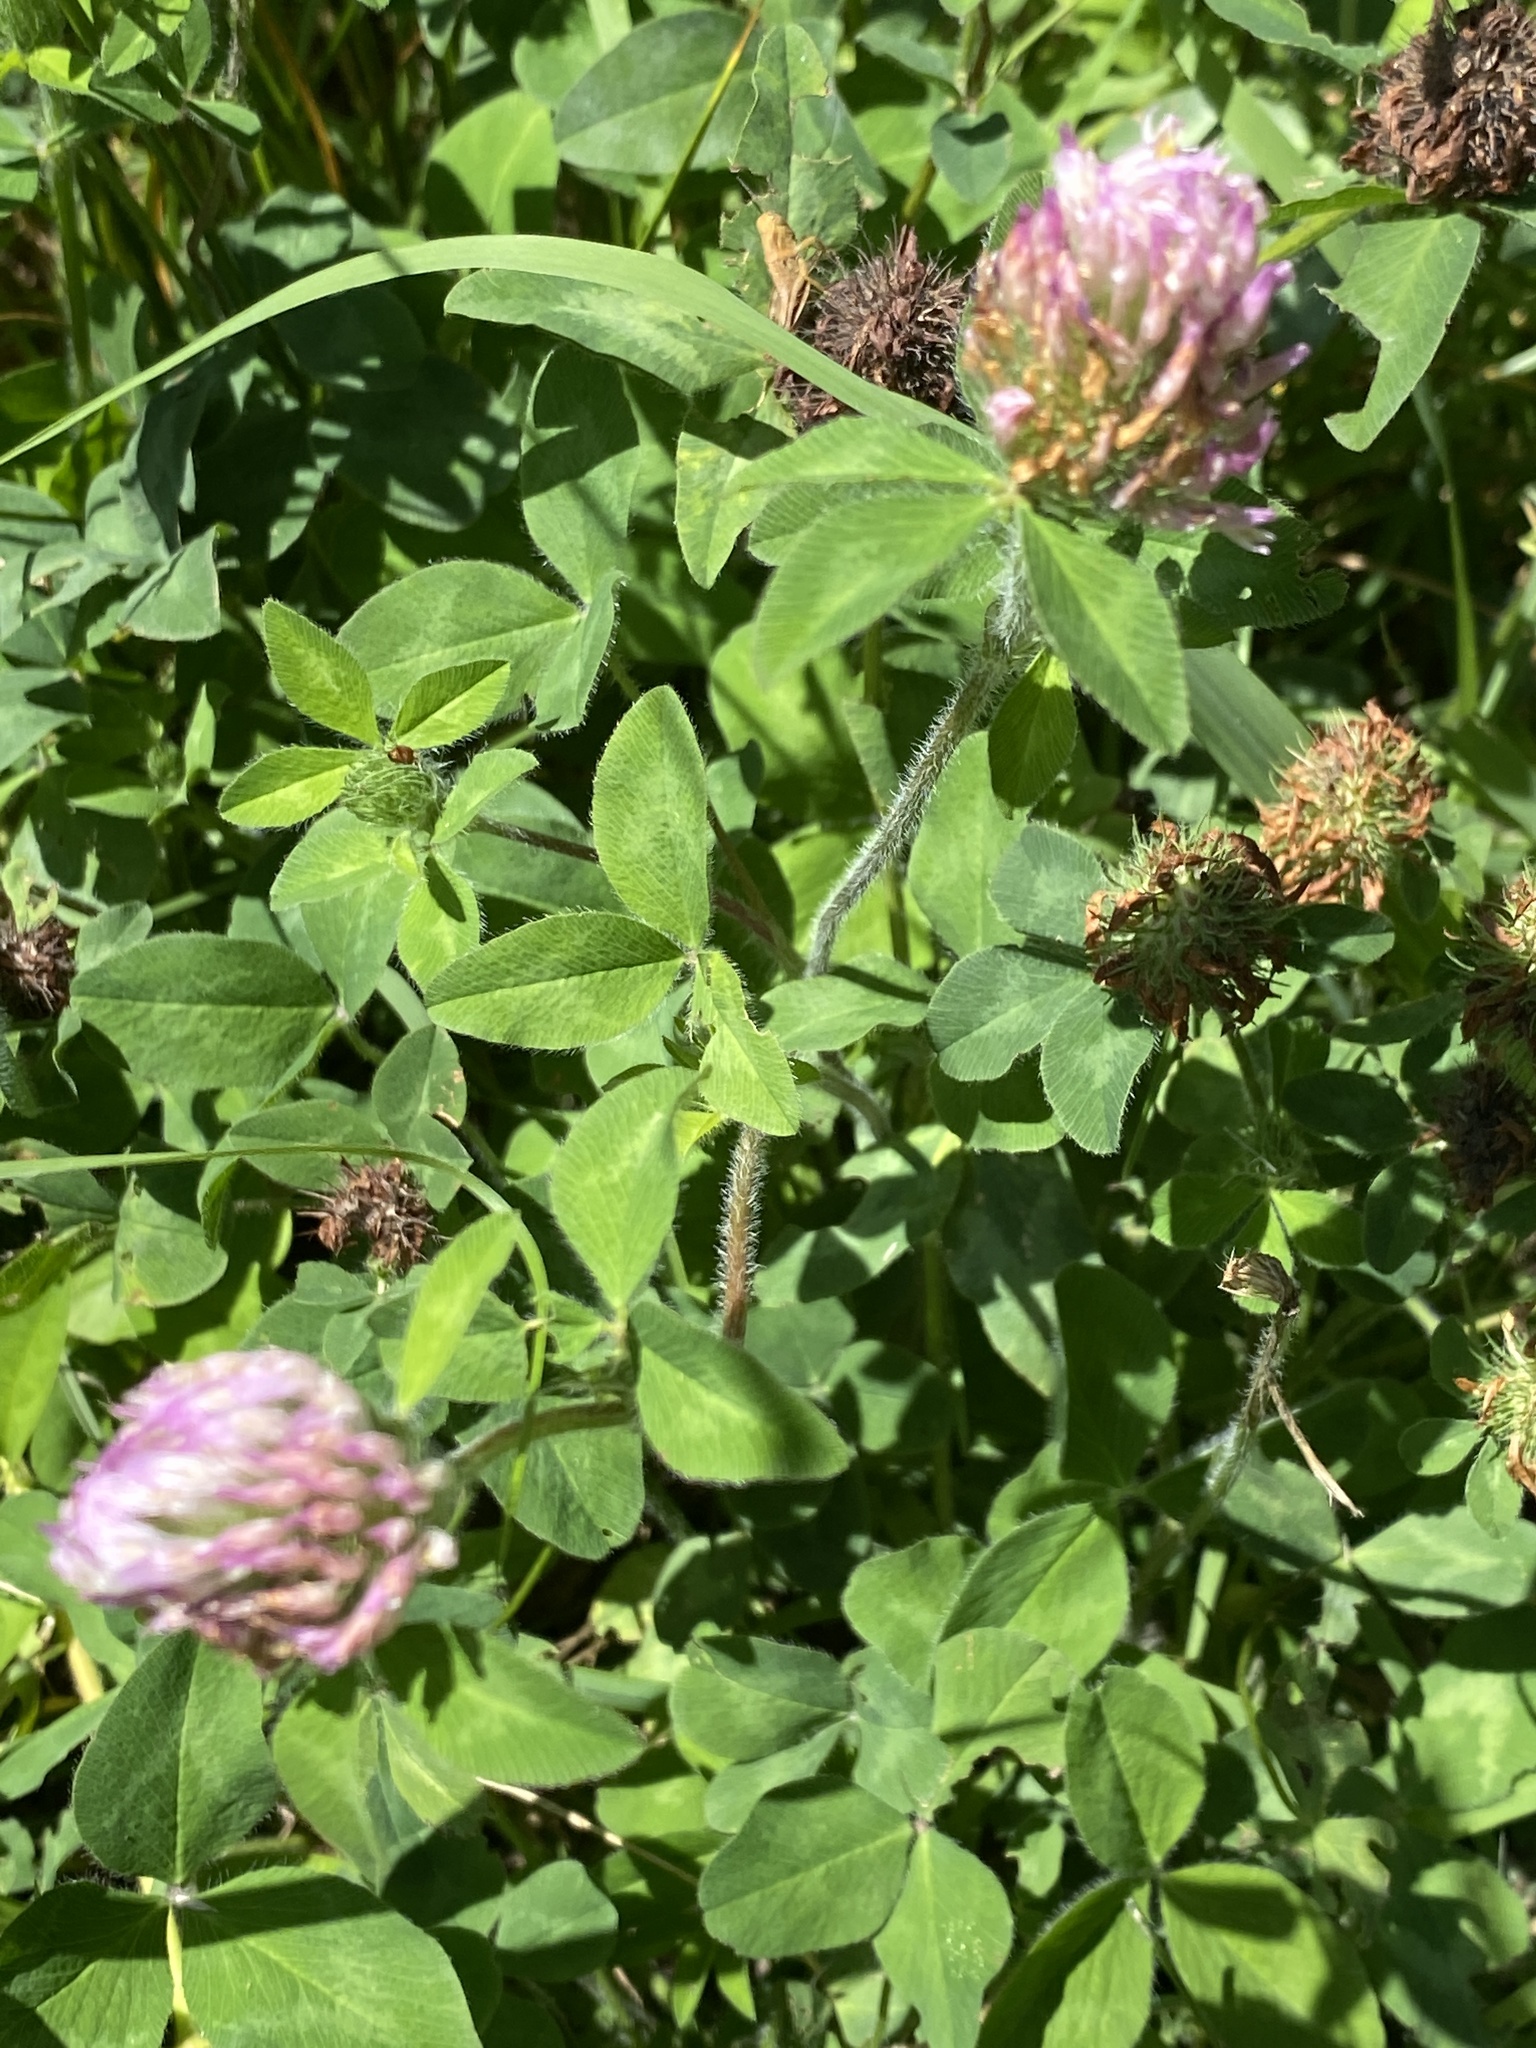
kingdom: Plantae
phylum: Tracheophyta
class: Magnoliopsida
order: Fabales
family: Fabaceae
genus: Trifolium
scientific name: Trifolium pratense
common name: Red clover
